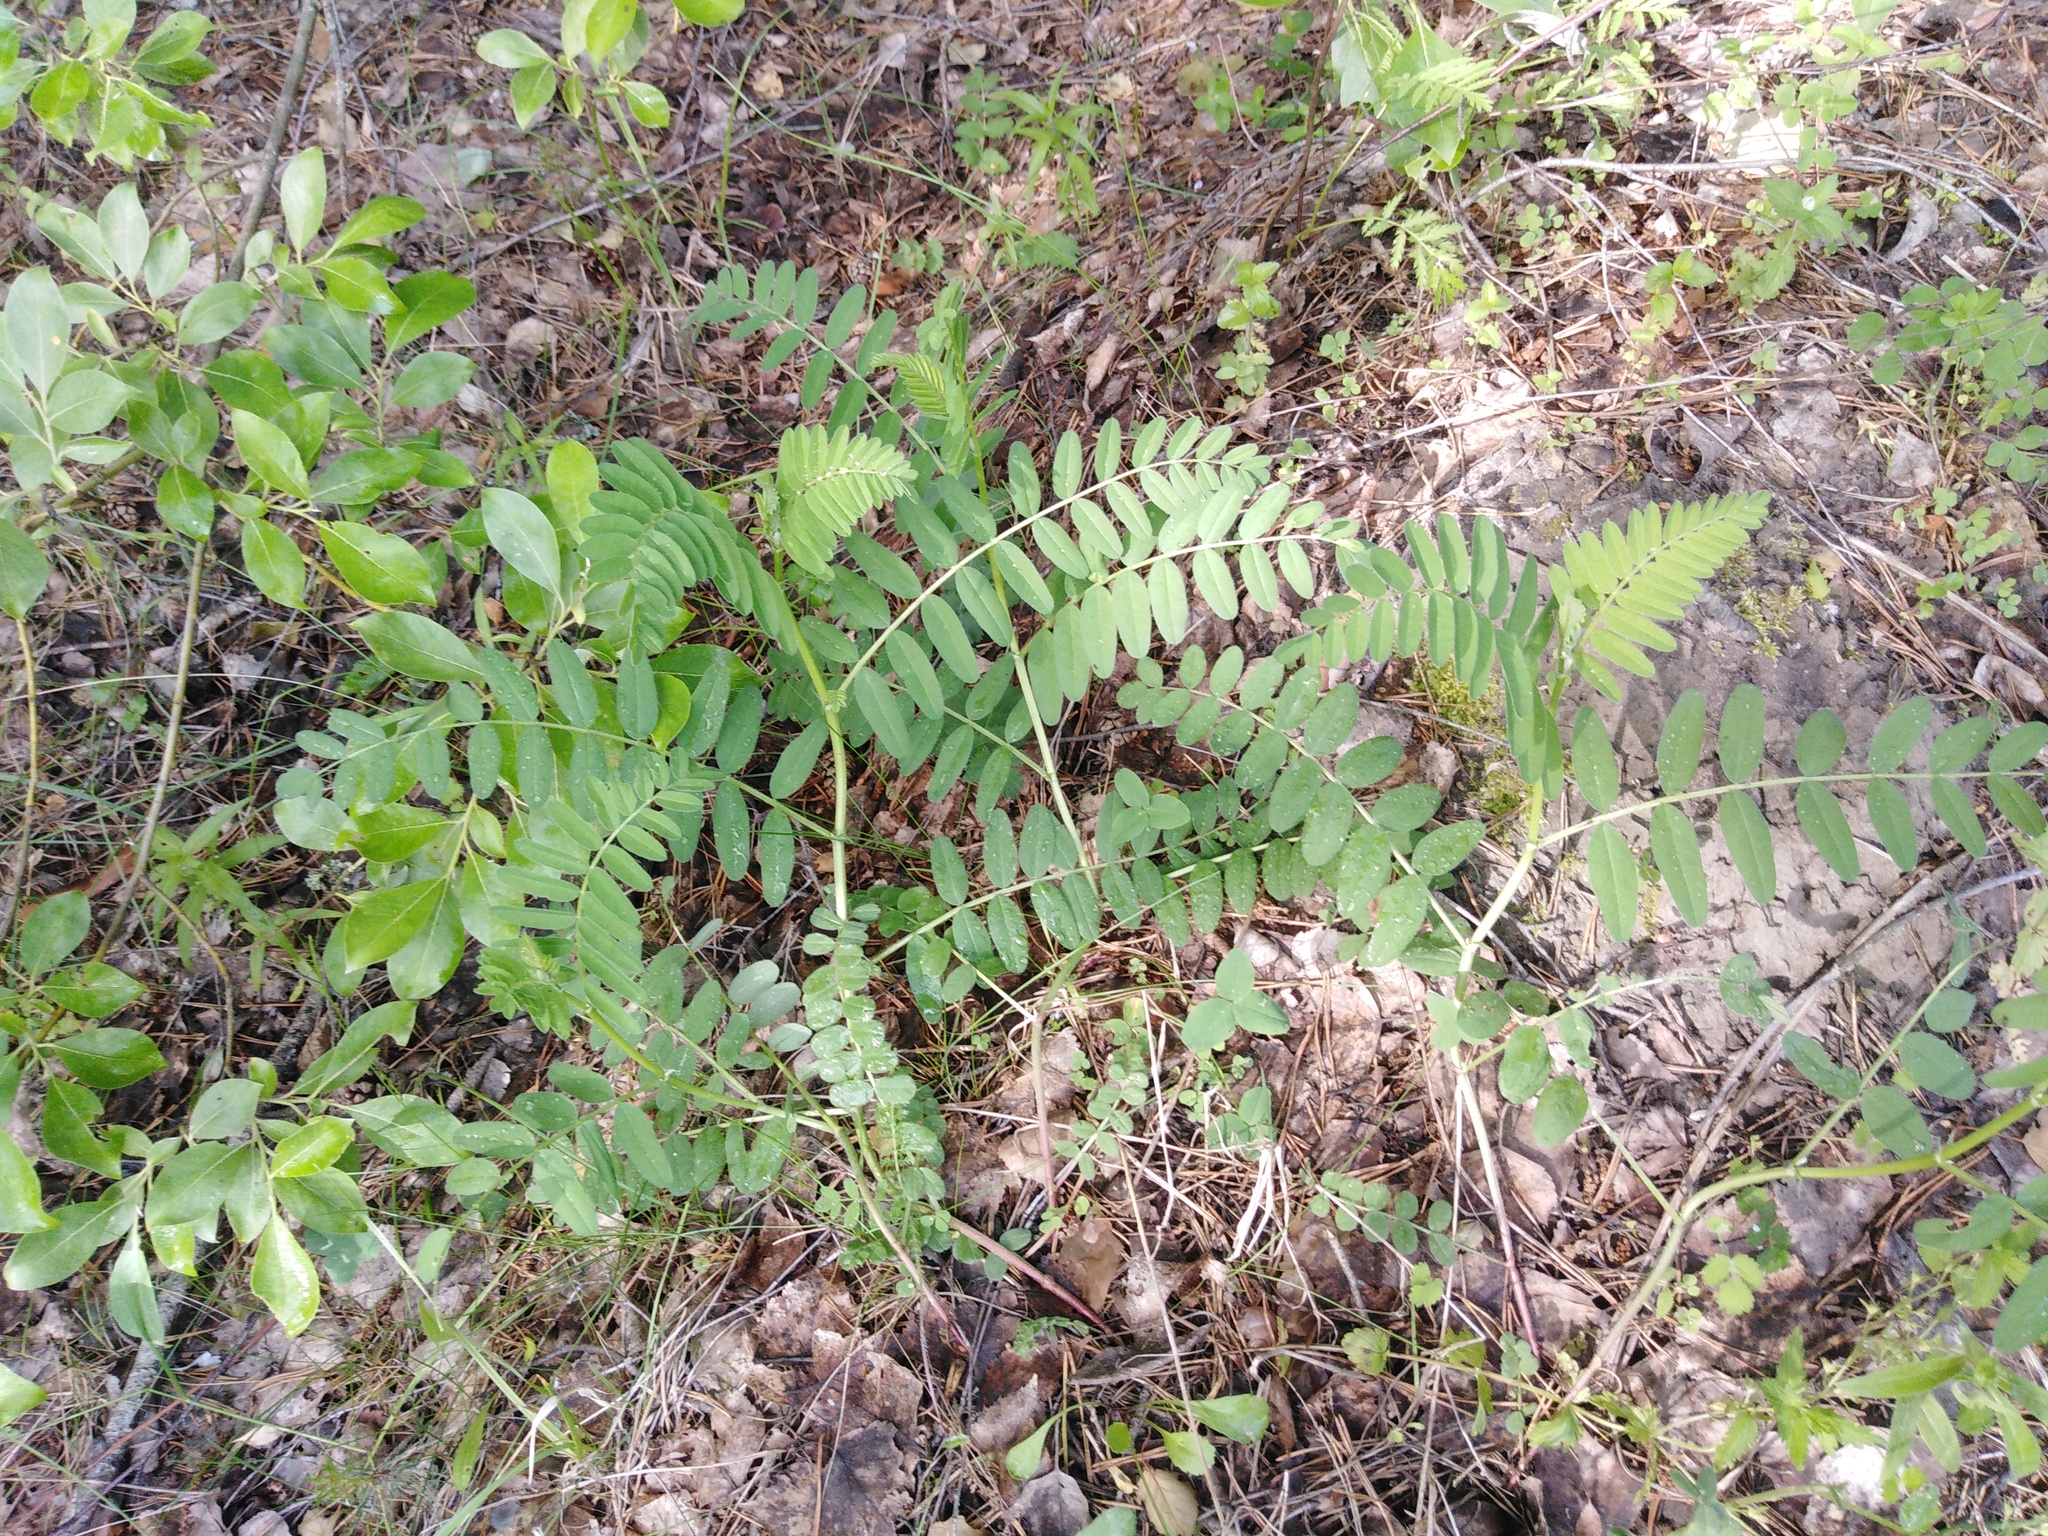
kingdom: Plantae
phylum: Tracheophyta
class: Magnoliopsida
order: Fabales
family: Fabaceae
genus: Astragalus
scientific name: Astragalus cicer
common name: Chick-pea milk-vetch
